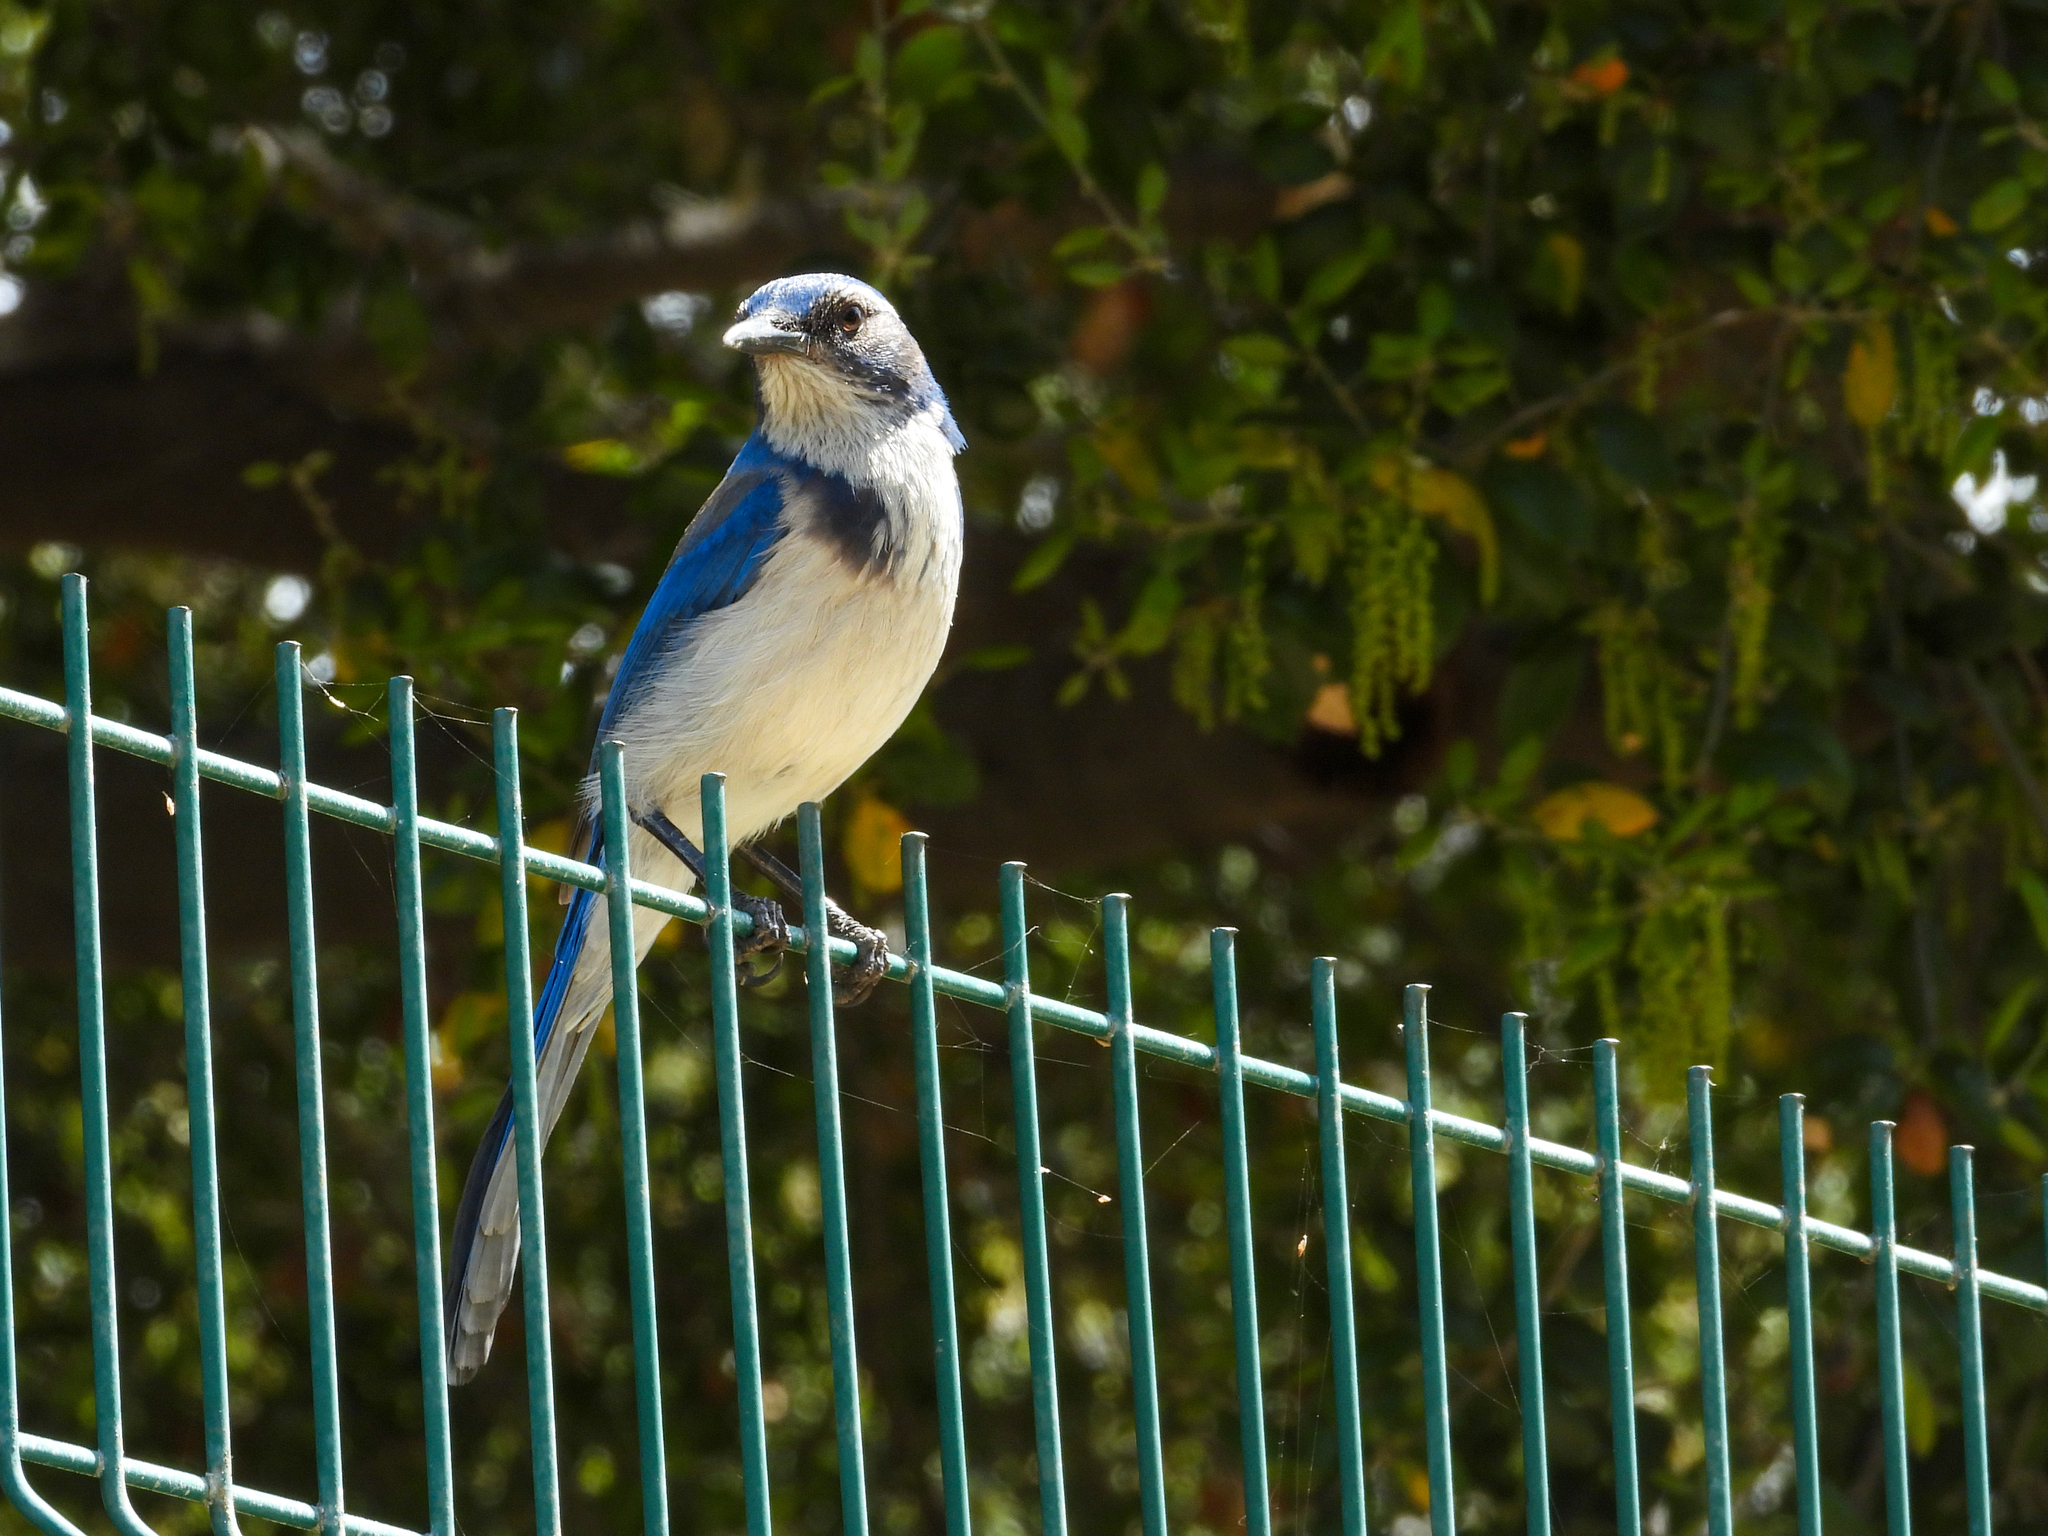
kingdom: Animalia
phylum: Chordata
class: Aves
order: Passeriformes
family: Corvidae
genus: Aphelocoma
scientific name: Aphelocoma californica
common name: California scrub-jay
